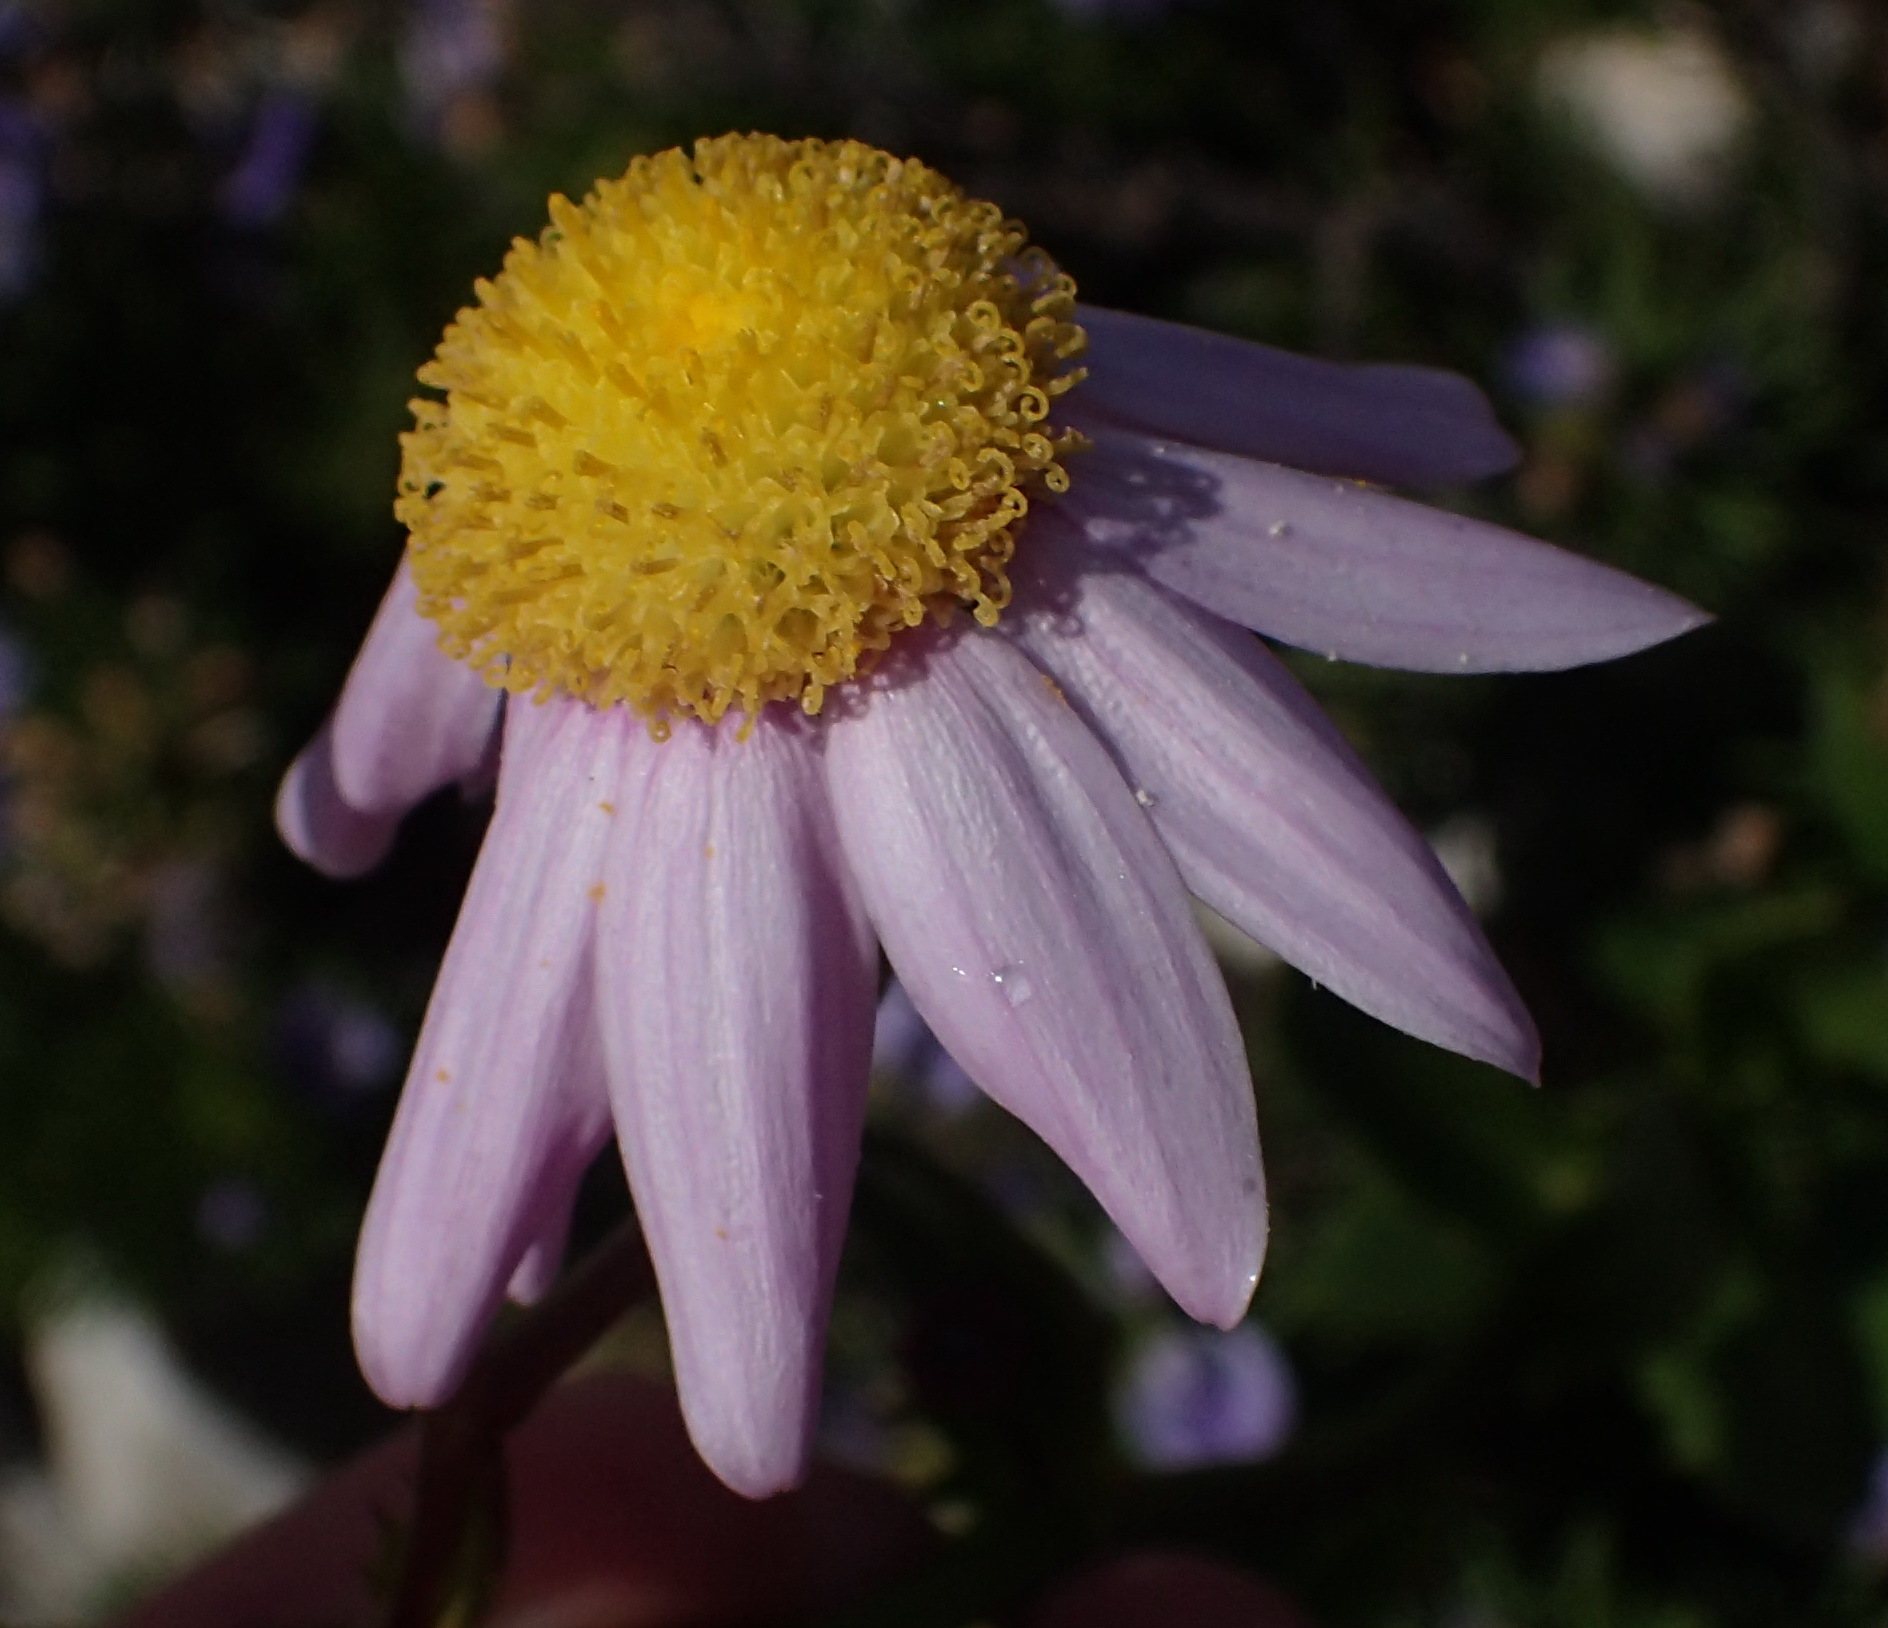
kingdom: Plantae
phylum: Tracheophyta
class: Magnoliopsida
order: Asterales
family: Asteraceae
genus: Senecio
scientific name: Senecio glastifolius
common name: Woad-leaved ragwort
